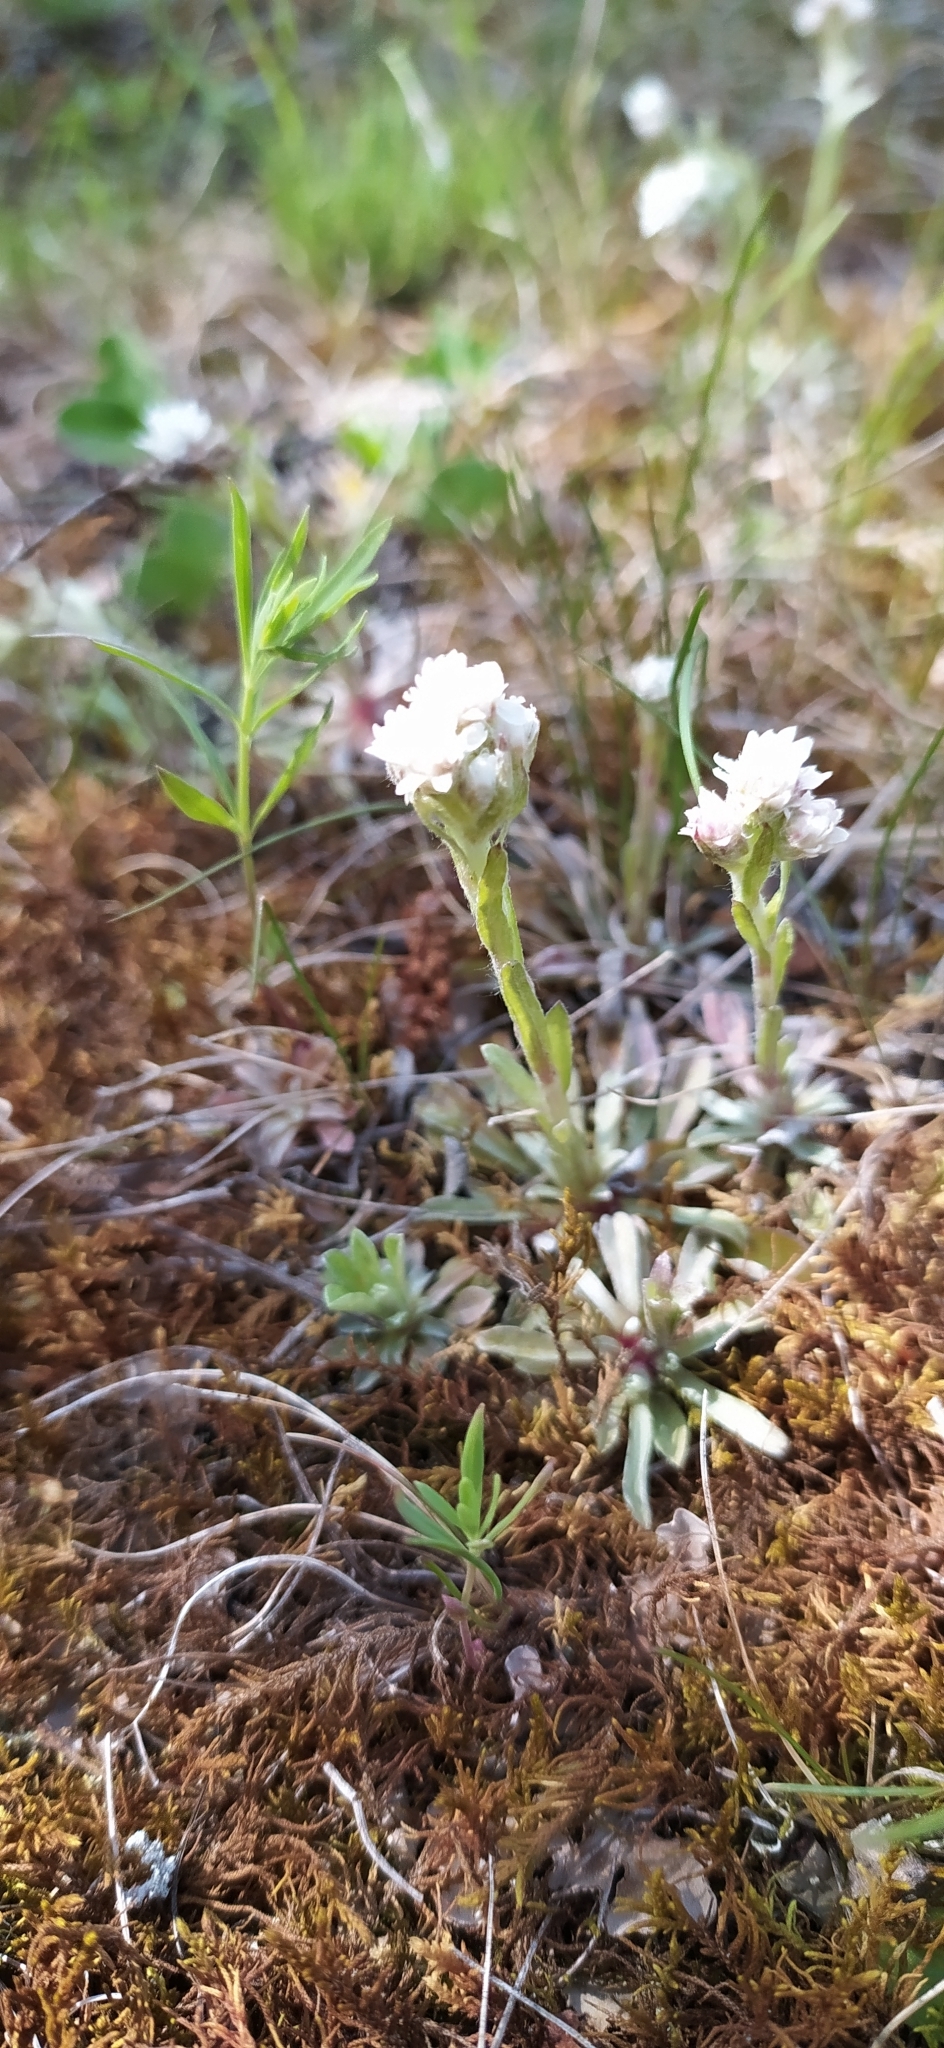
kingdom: Plantae
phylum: Tracheophyta
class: Magnoliopsida
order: Asterales
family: Asteraceae
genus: Antennaria
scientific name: Antennaria dioica
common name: Mountain everlasting
